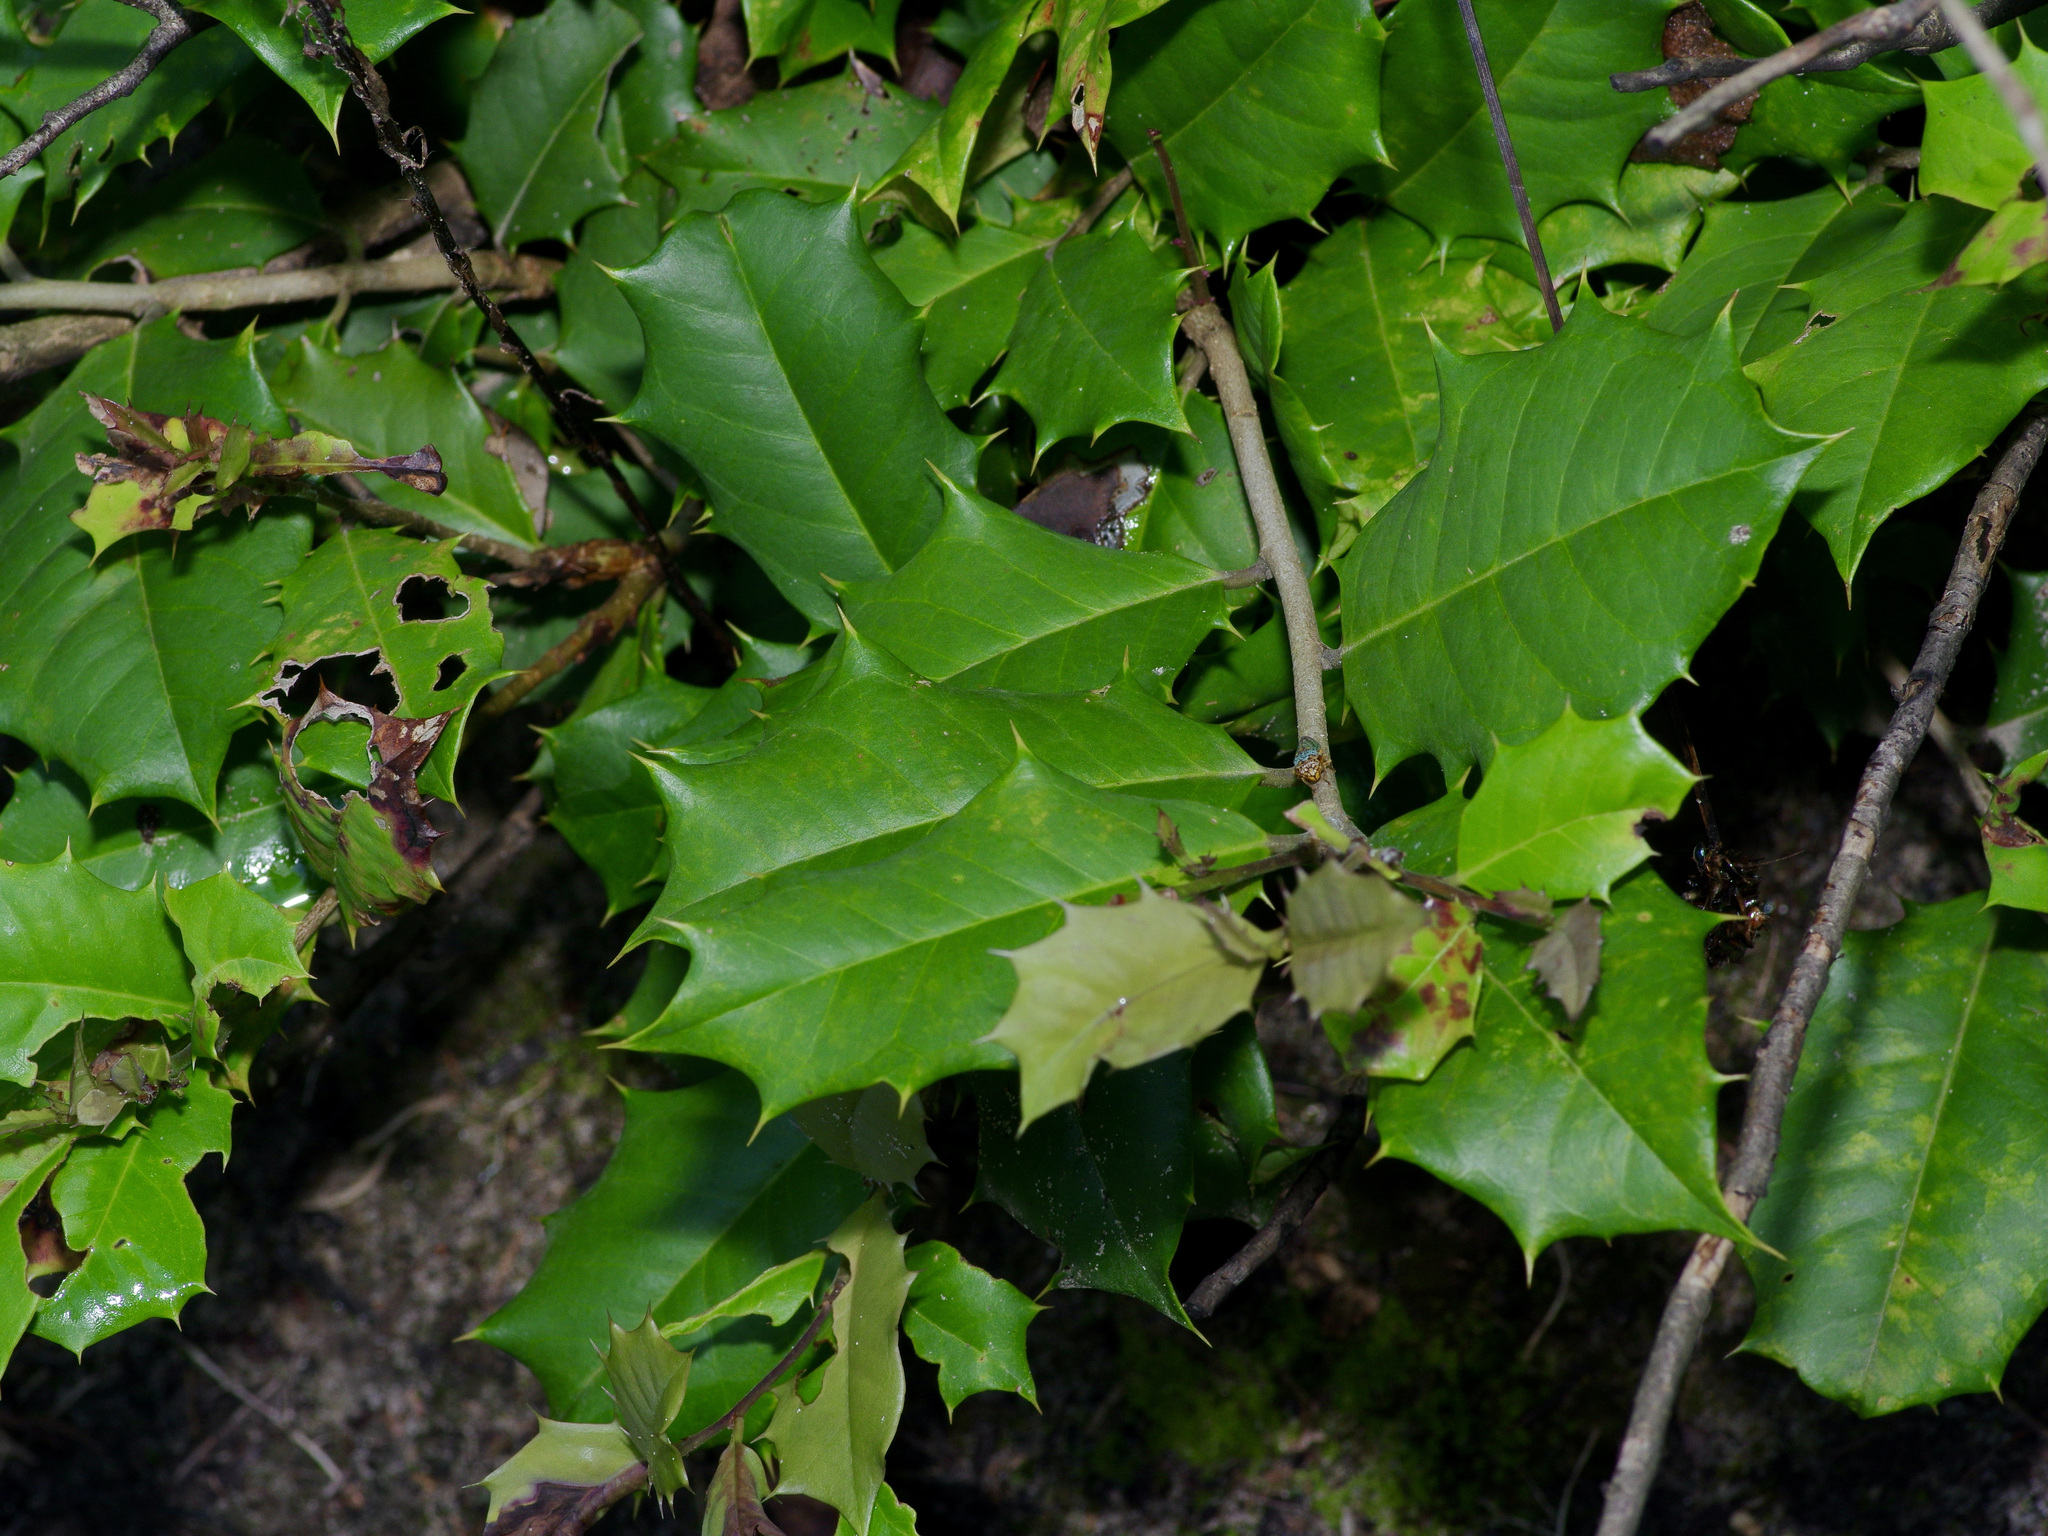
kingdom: Plantae
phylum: Tracheophyta
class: Magnoliopsida
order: Aquifoliales
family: Aquifoliaceae
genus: Ilex
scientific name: Ilex opaca
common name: American holly
